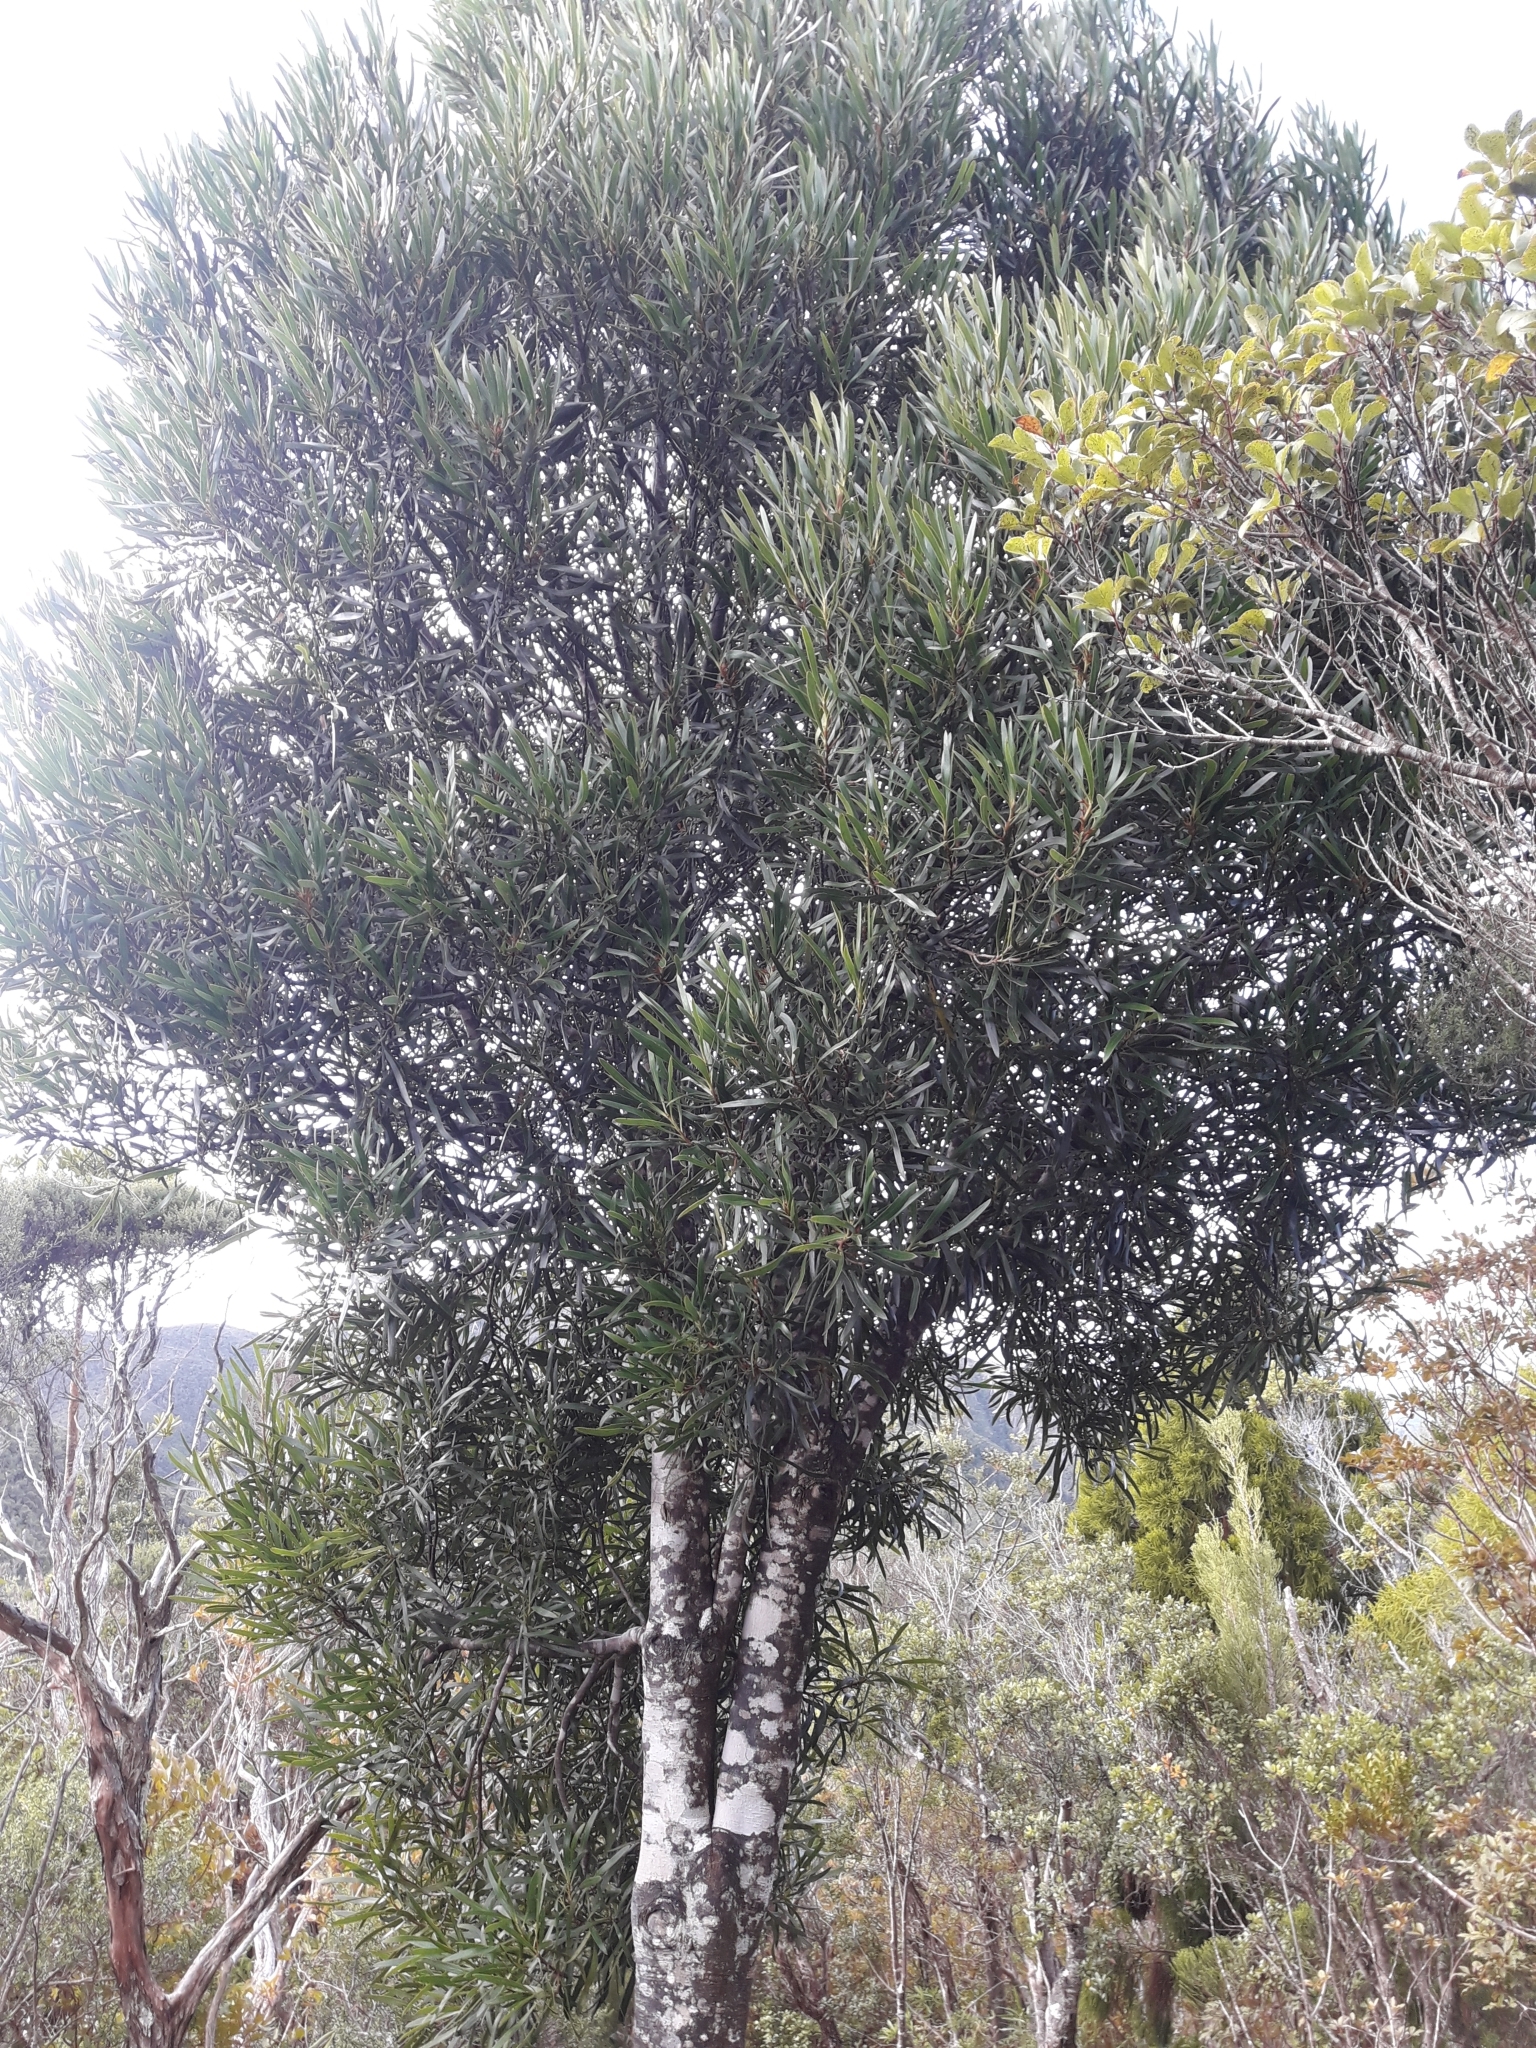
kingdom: Plantae
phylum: Tracheophyta
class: Magnoliopsida
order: Proteales
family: Proteaceae
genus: Toronia
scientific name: Toronia toru
